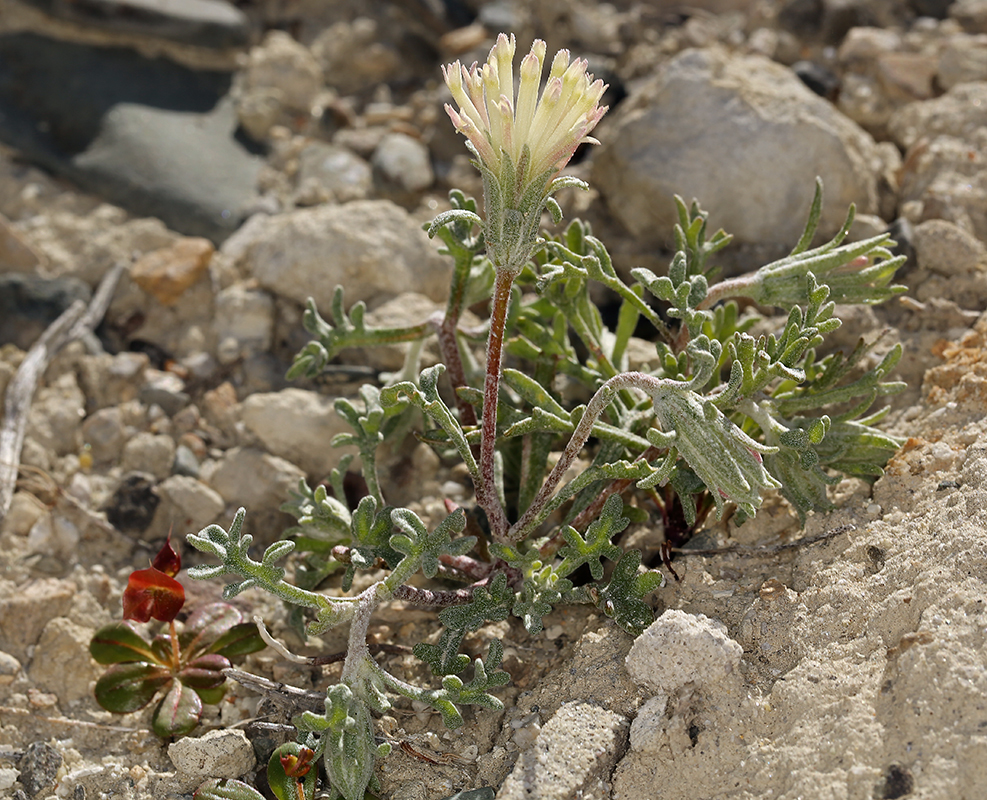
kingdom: Plantae
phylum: Tracheophyta
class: Magnoliopsida
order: Asterales
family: Asteraceae
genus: Chaenactis
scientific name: Chaenactis macrantha
